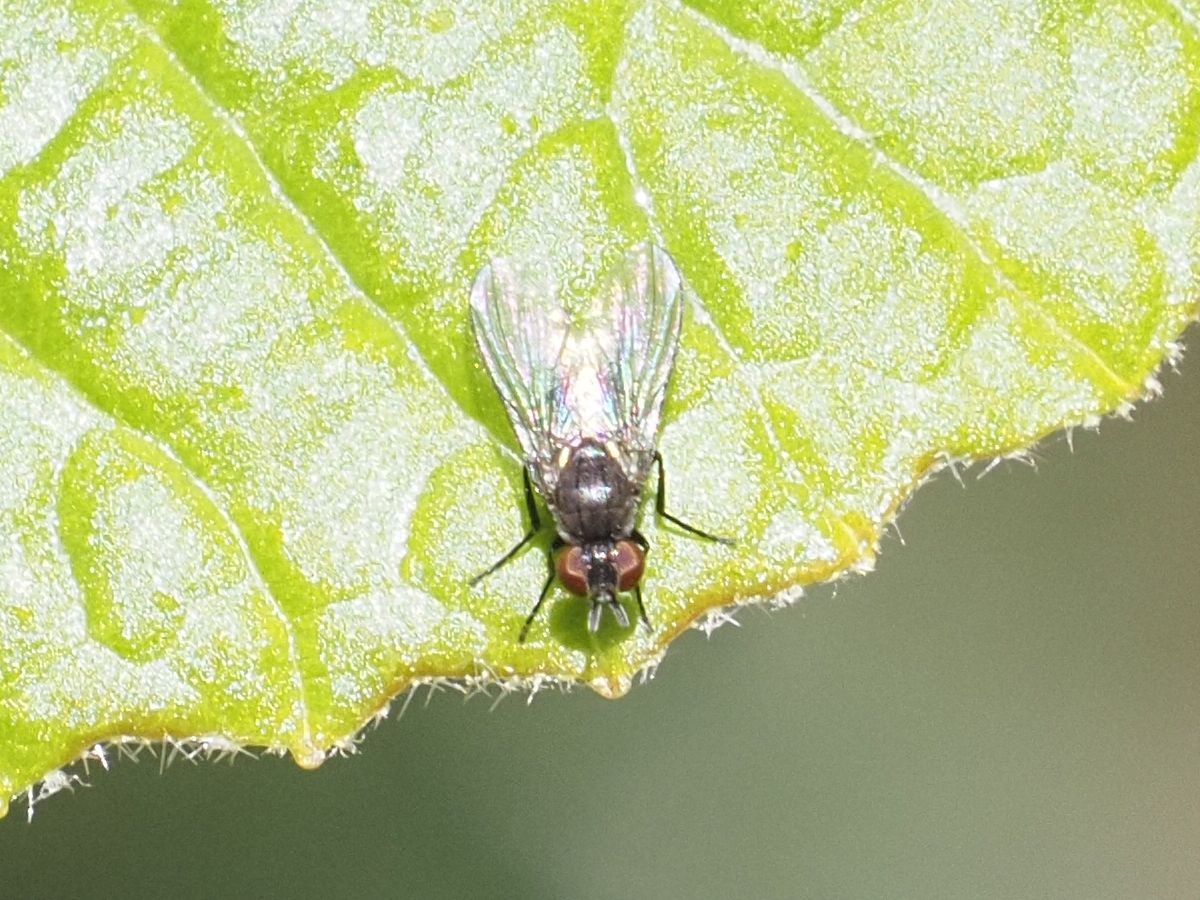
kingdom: Animalia
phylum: Arthropoda
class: Insecta
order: Diptera
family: Muscidae
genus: Coenosia
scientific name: Coenosia agromyzina
